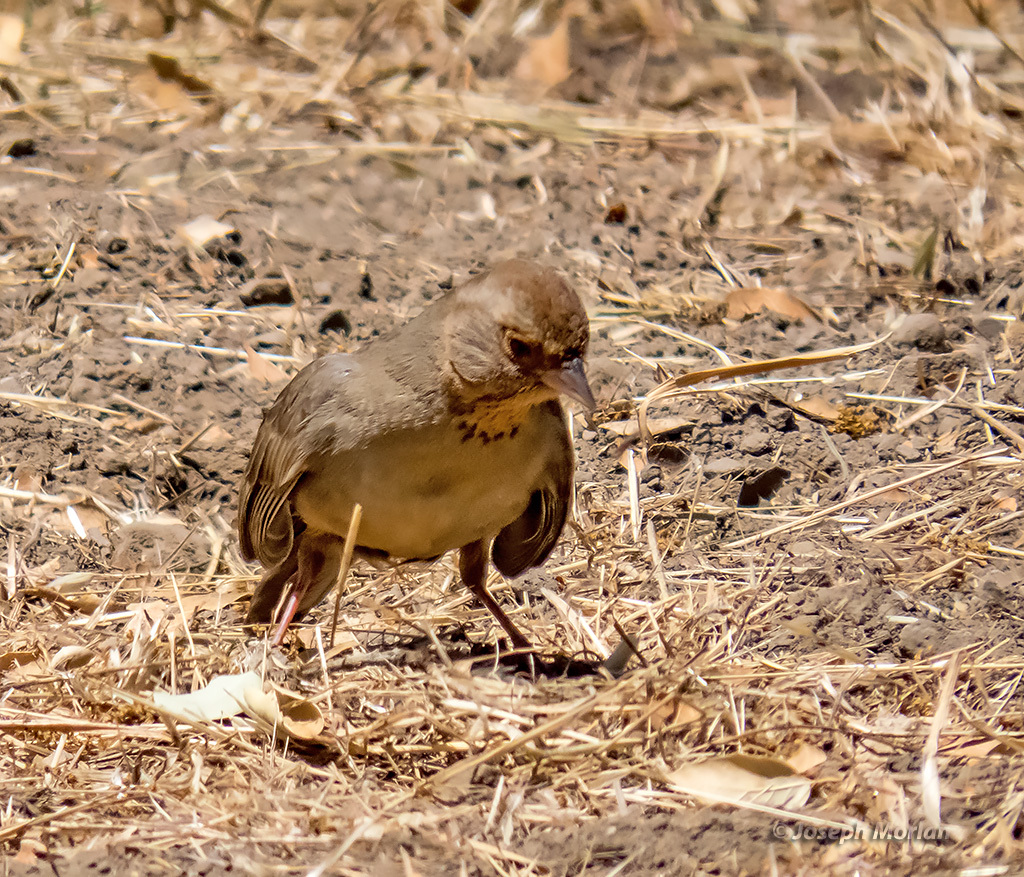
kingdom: Animalia
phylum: Chordata
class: Aves
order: Passeriformes
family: Passerellidae
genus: Melozone
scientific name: Melozone crissalis
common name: California towhee
